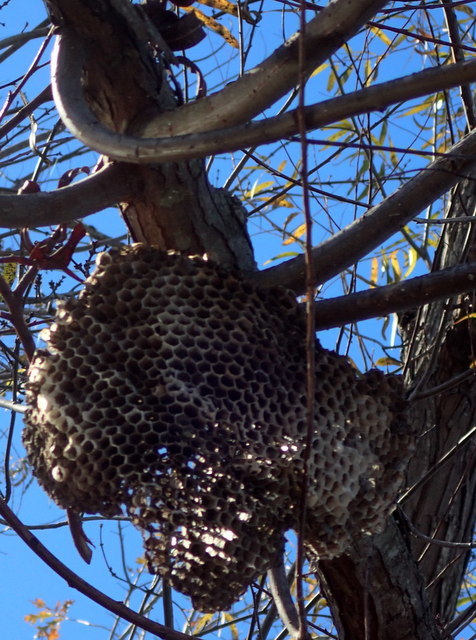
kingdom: Animalia
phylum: Arthropoda
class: Insecta
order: Hymenoptera
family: Eumenidae
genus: Polistes
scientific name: Polistes annularis
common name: Ringed paper wasp
